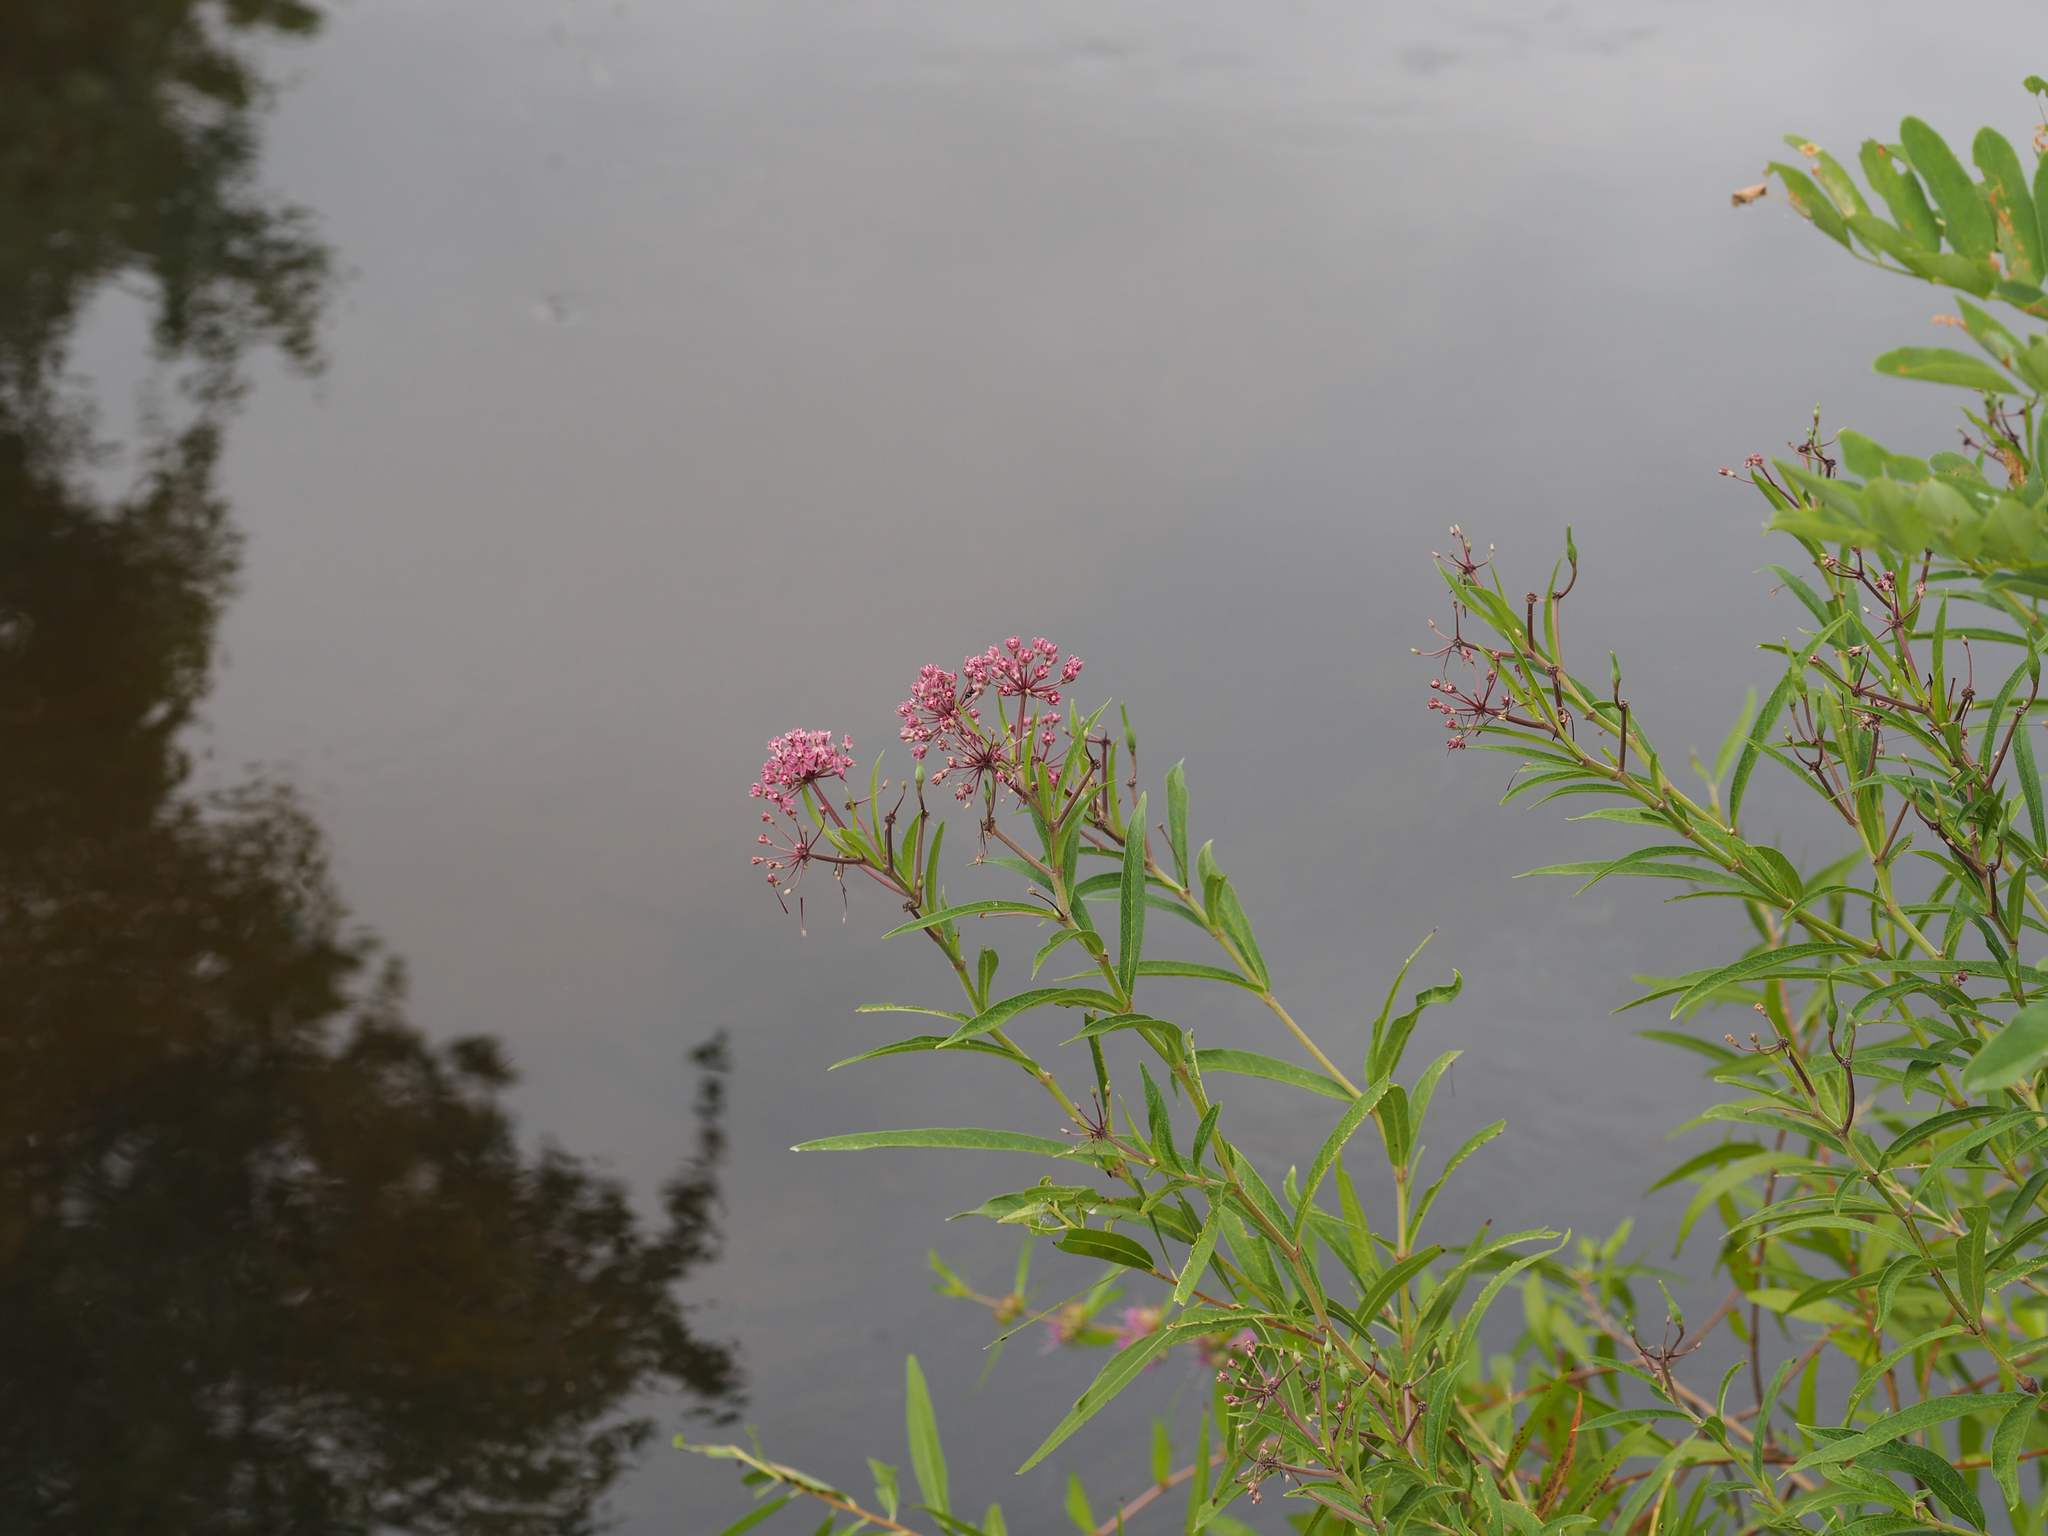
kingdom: Plantae
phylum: Tracheophyta
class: Magnoliopsida
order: Gentianales
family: Apocynaceae
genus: Asclepias
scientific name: Asclepias incarnata
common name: Swamp milkweed
